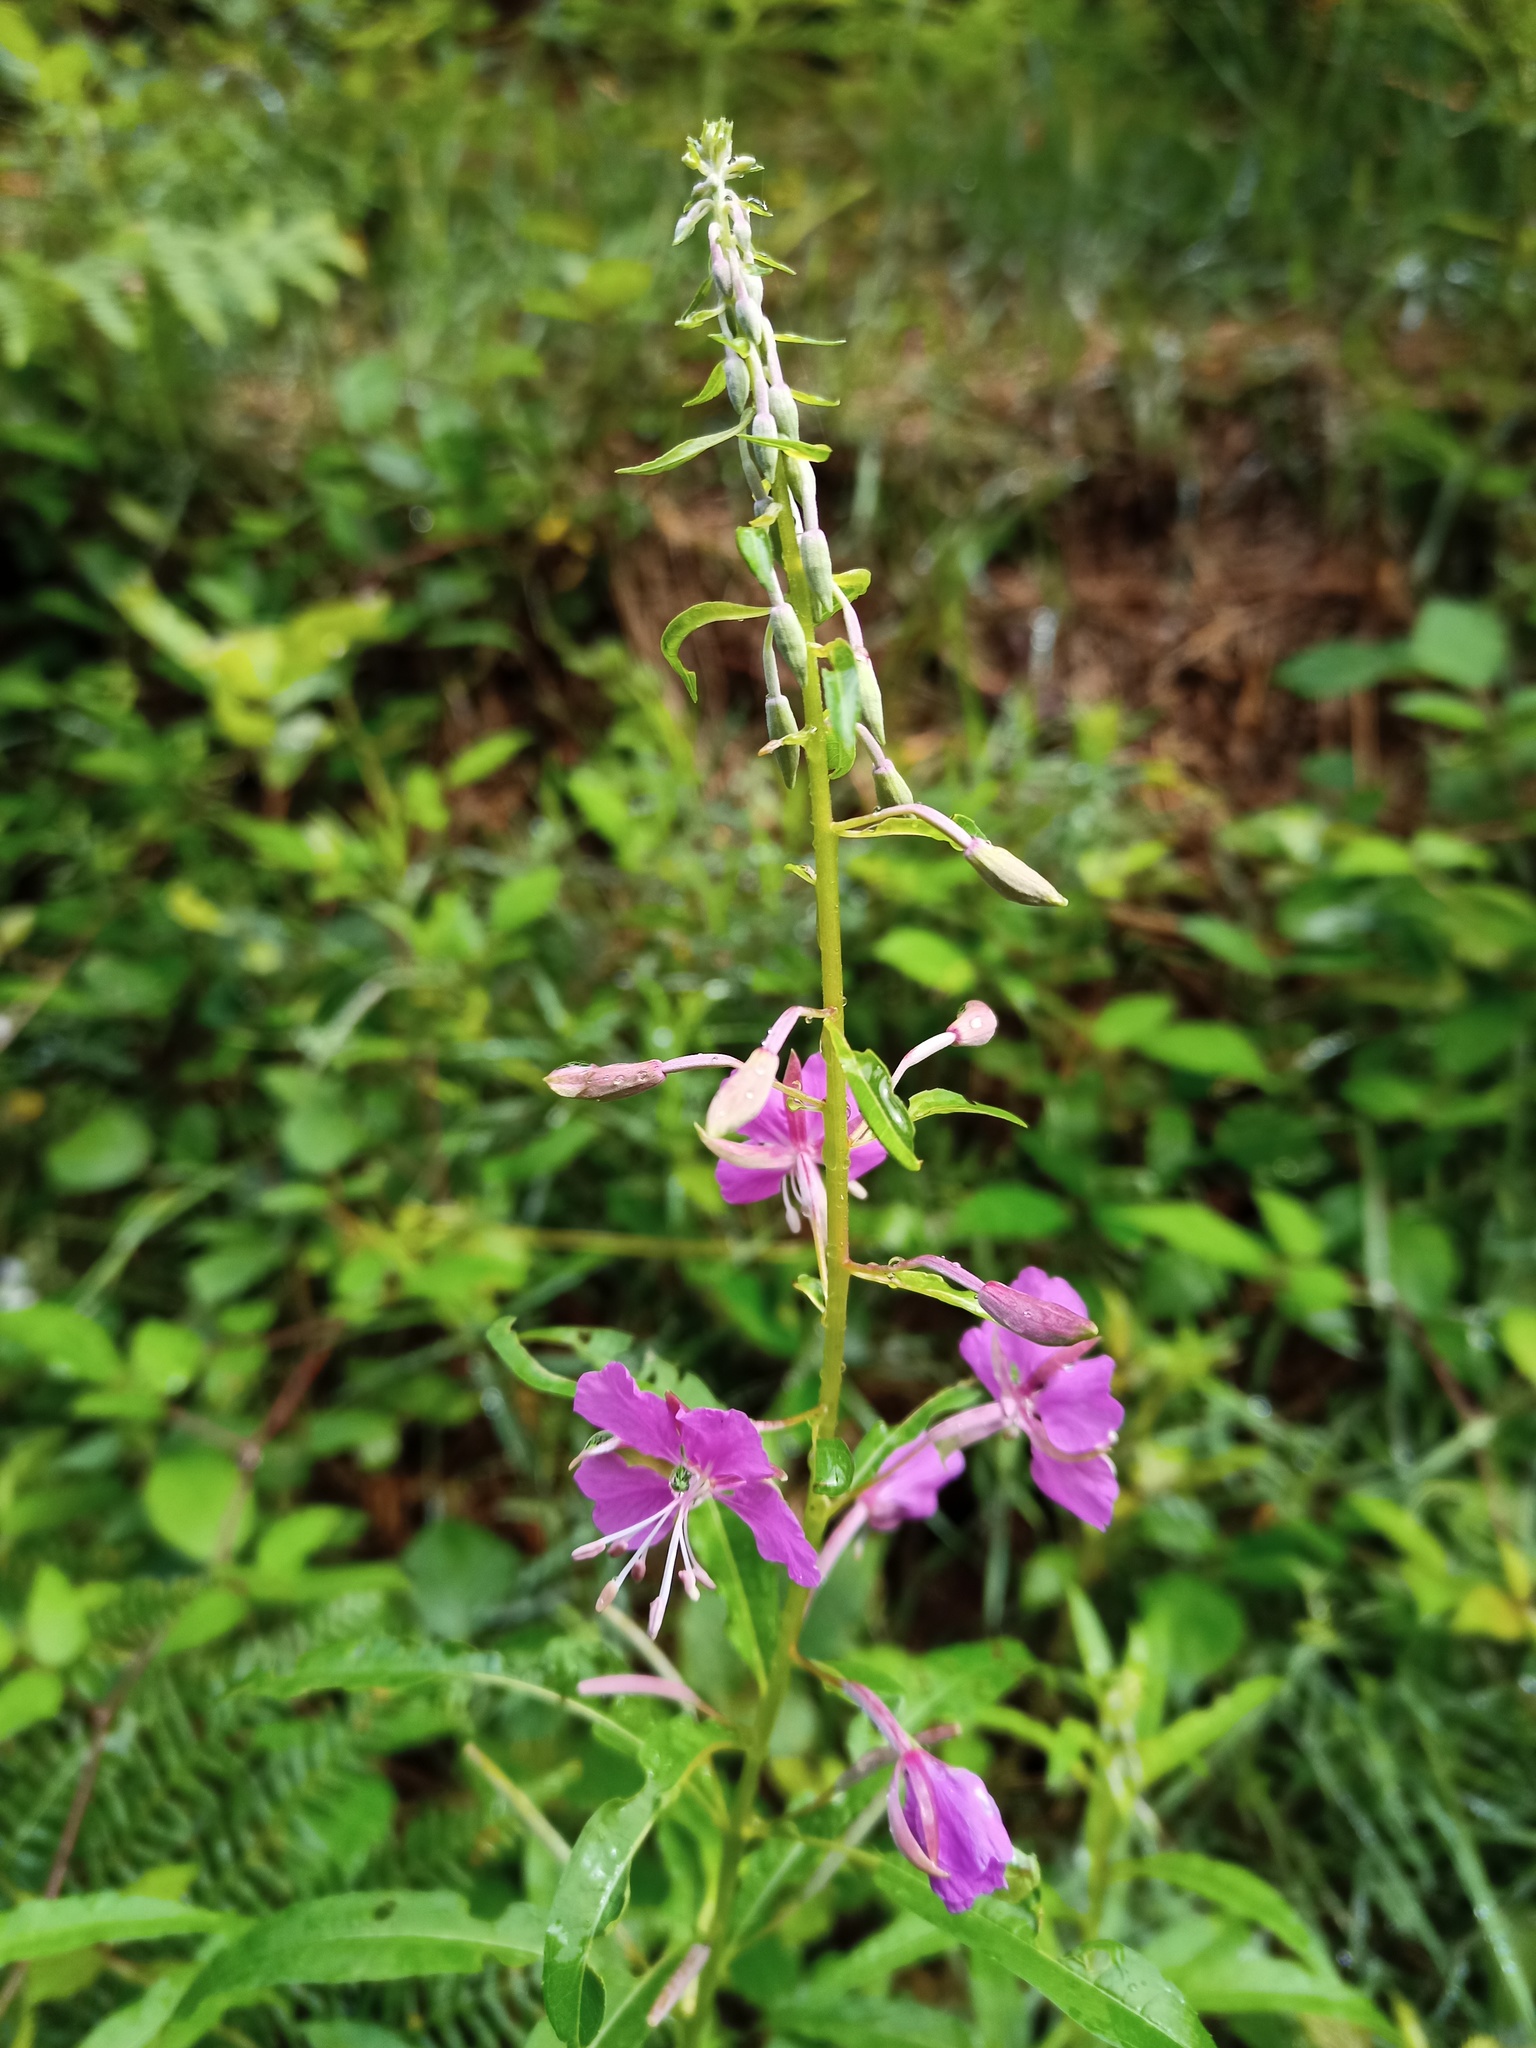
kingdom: Plantae
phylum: Tracheophyta
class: Magnoliopsida
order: Myrtales
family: Onagraceae
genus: Chamaenerion
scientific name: Chamaenerion angustifolium
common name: Fireweed
